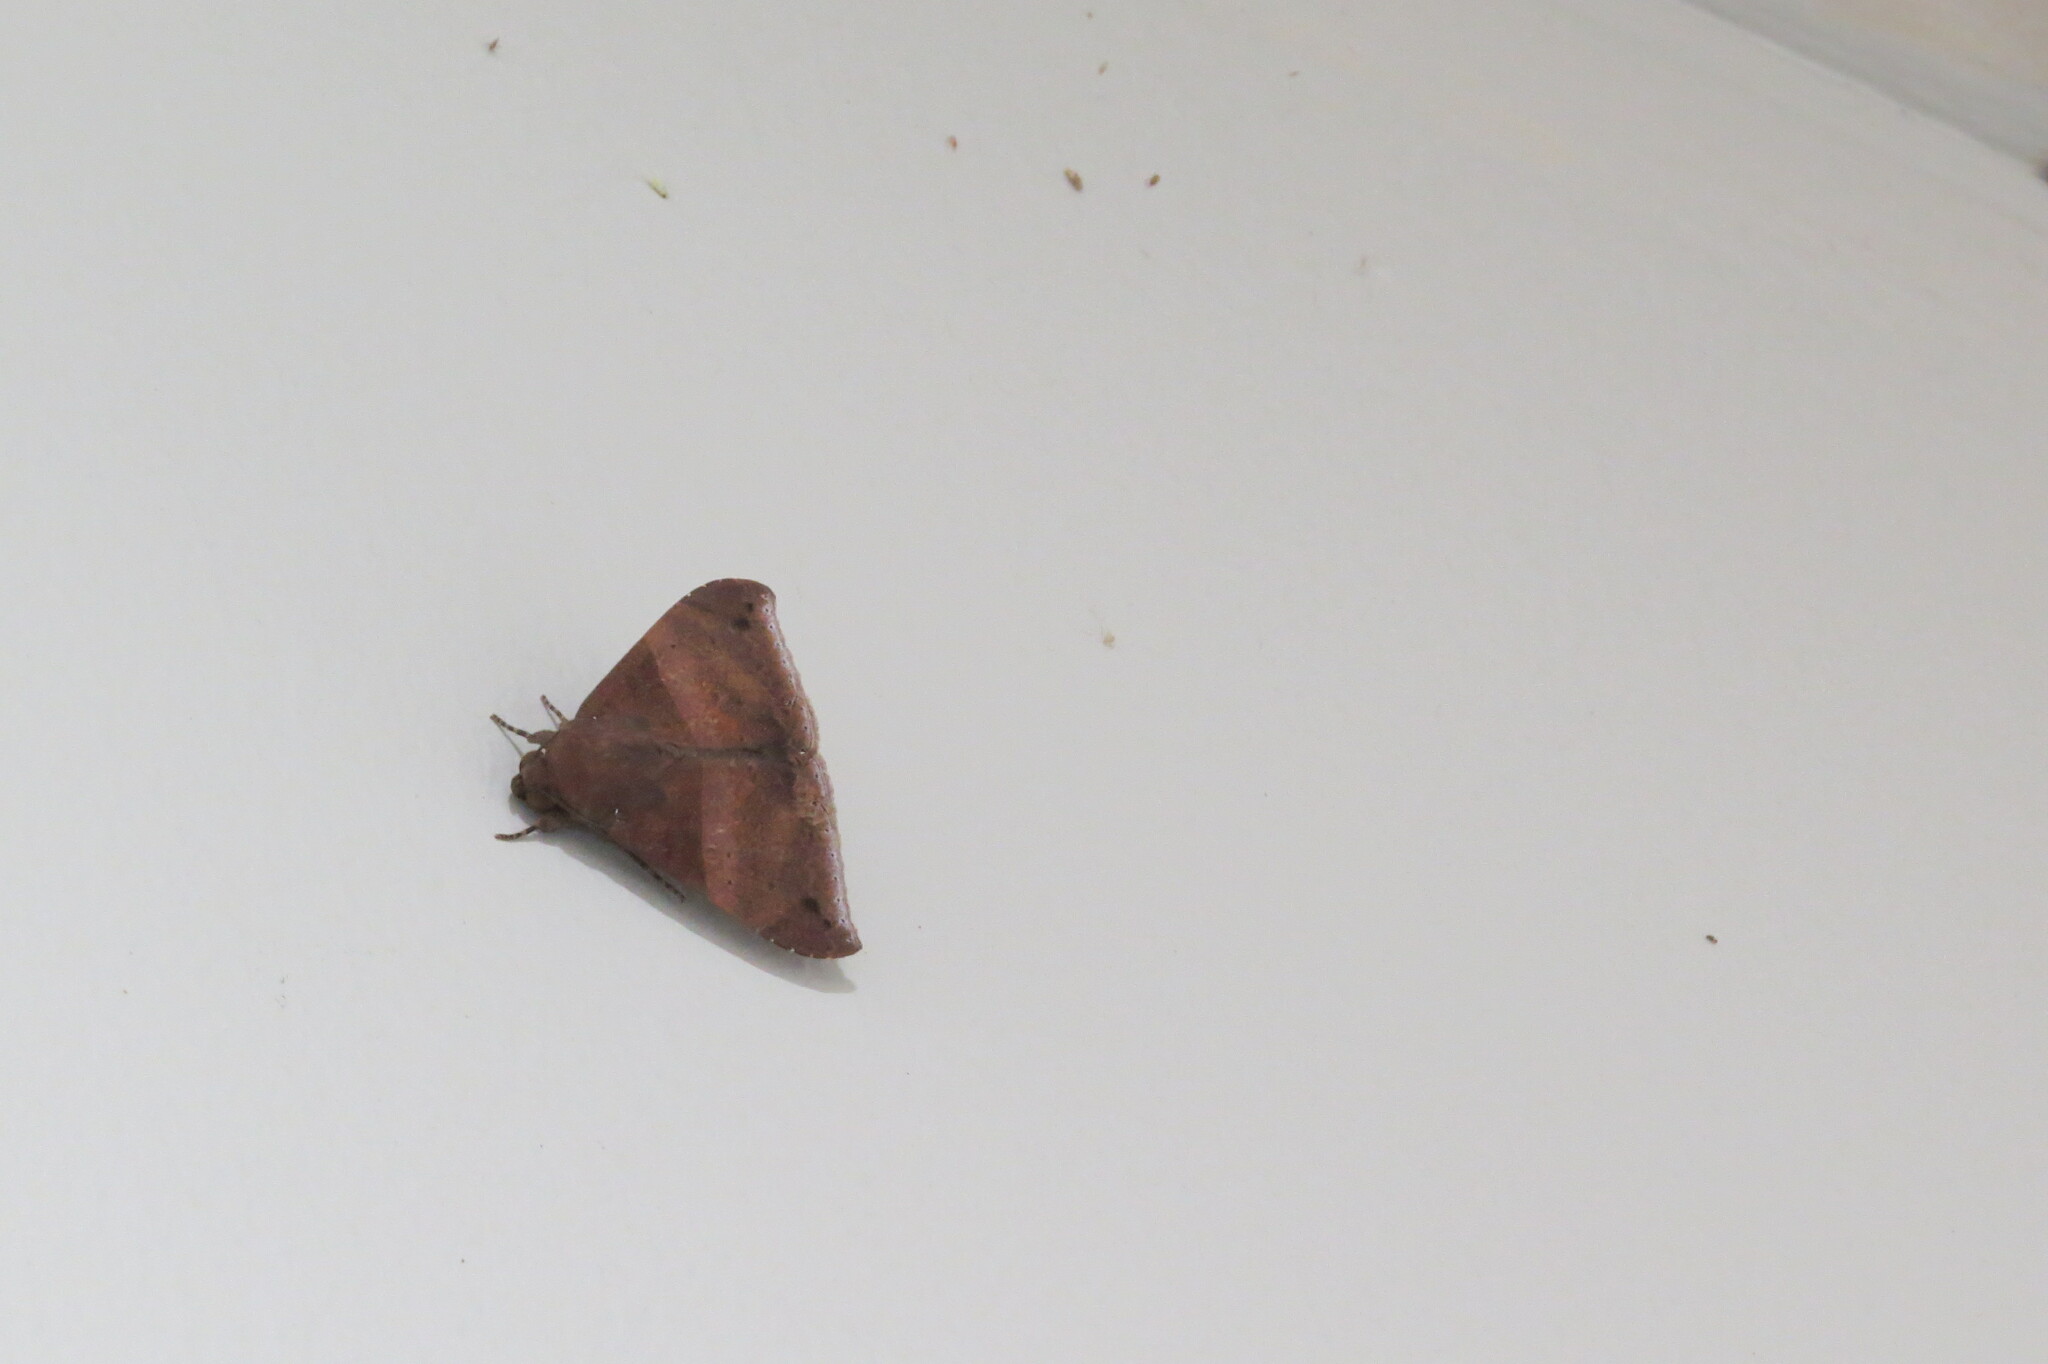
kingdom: Animalia
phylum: Arthropoda
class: Insecta
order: Lepidoptera
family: Erebidae
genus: Ophisma
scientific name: Ophisma tropicalis
